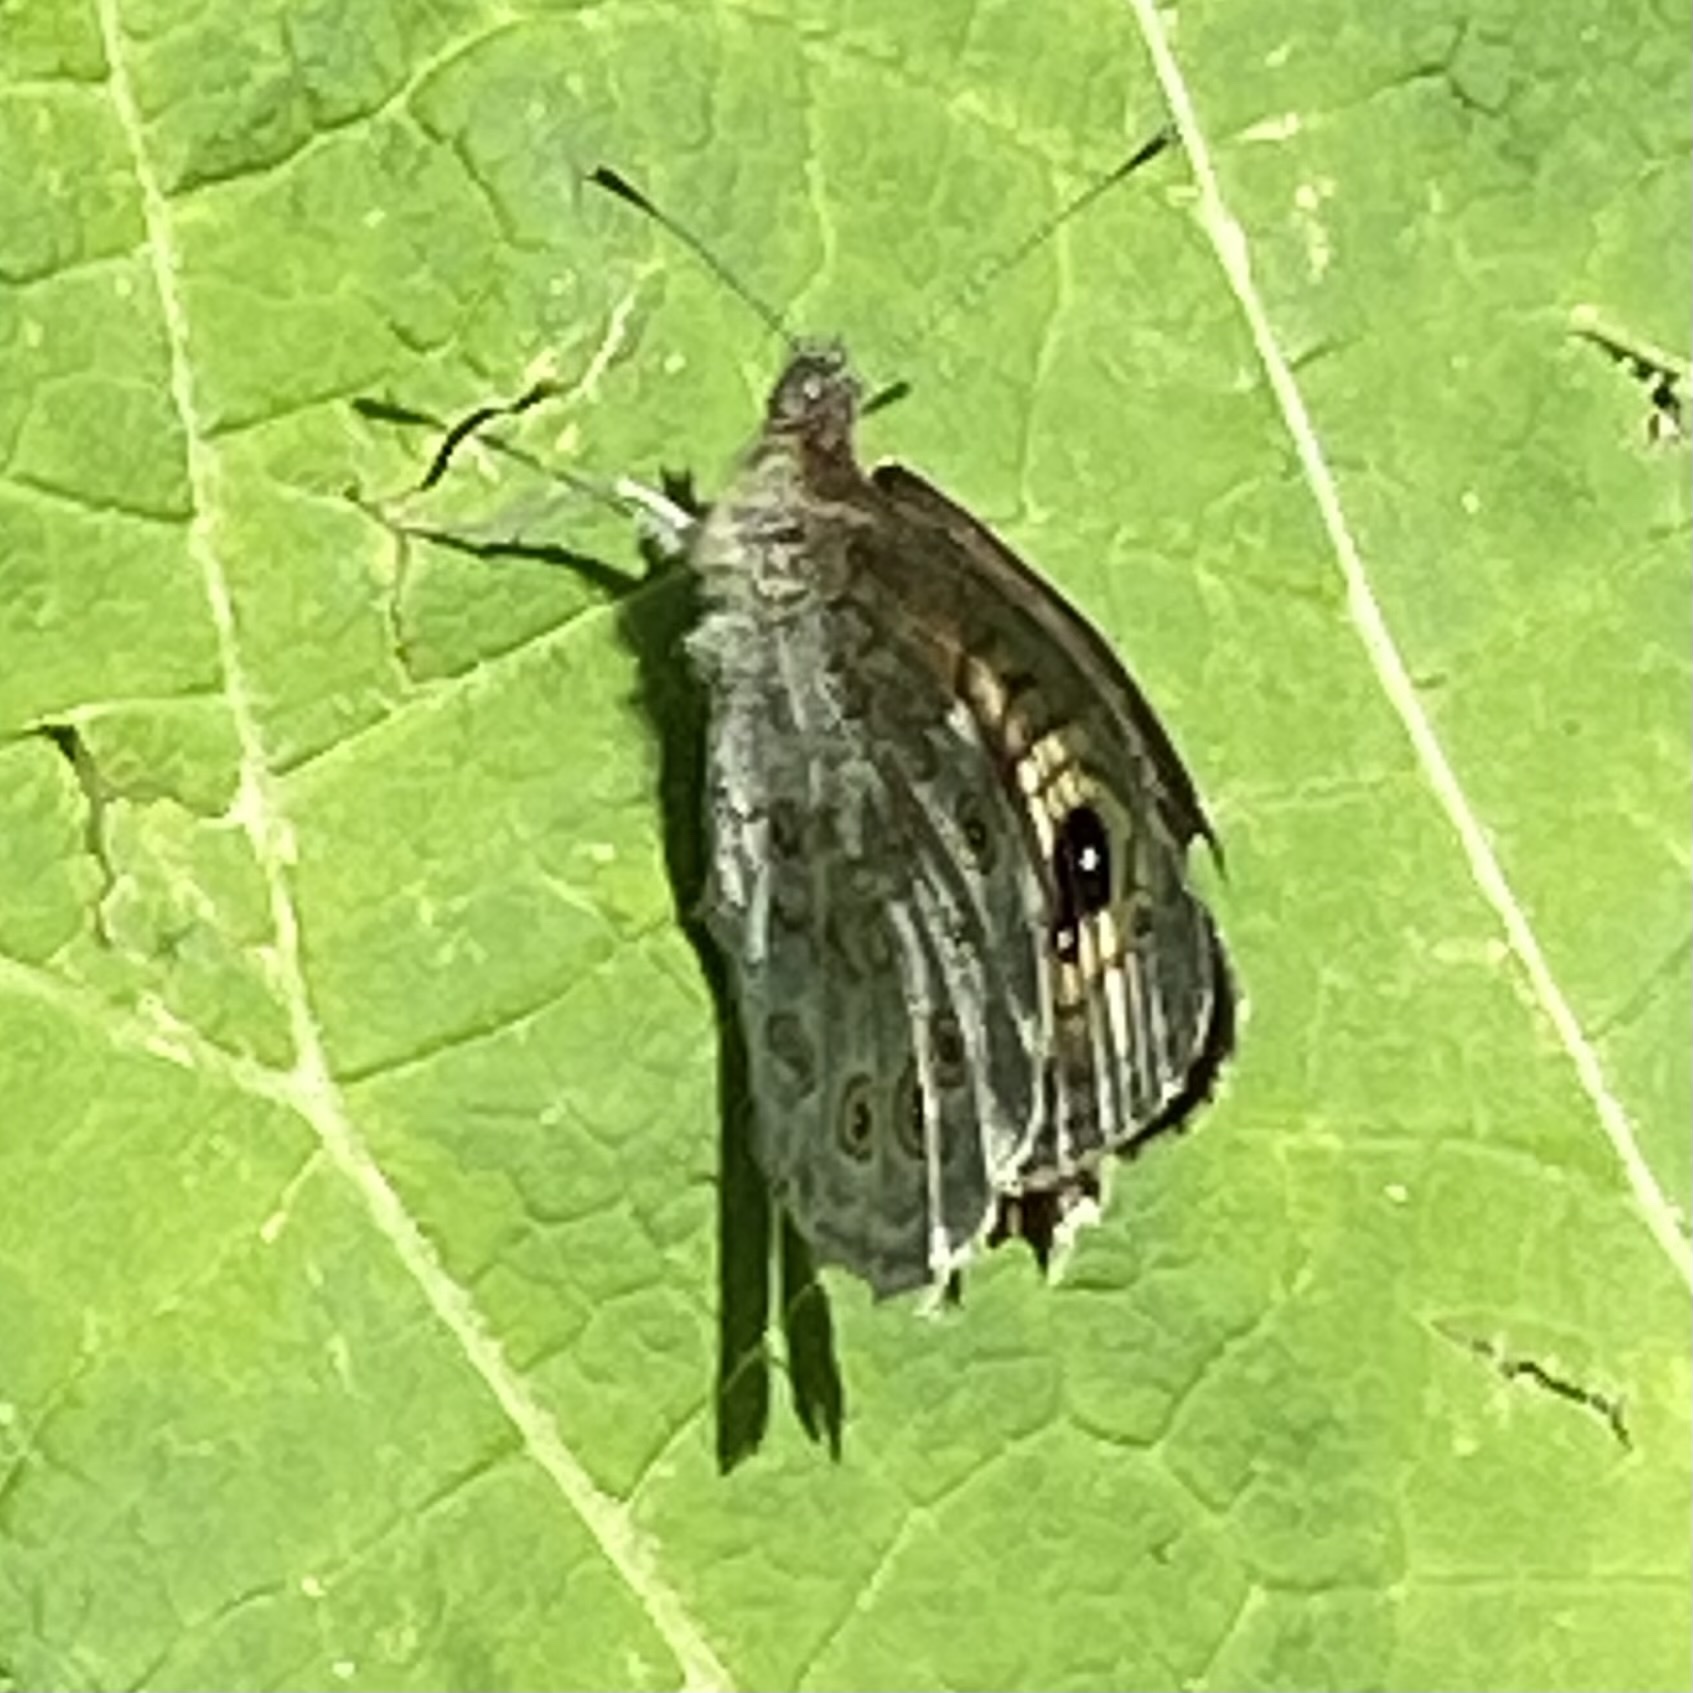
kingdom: Animalia
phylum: Arthropoda
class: Insecta
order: Lepidoptera
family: Nymphalidae
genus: Pararge
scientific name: Pararge Lasiommata maera
